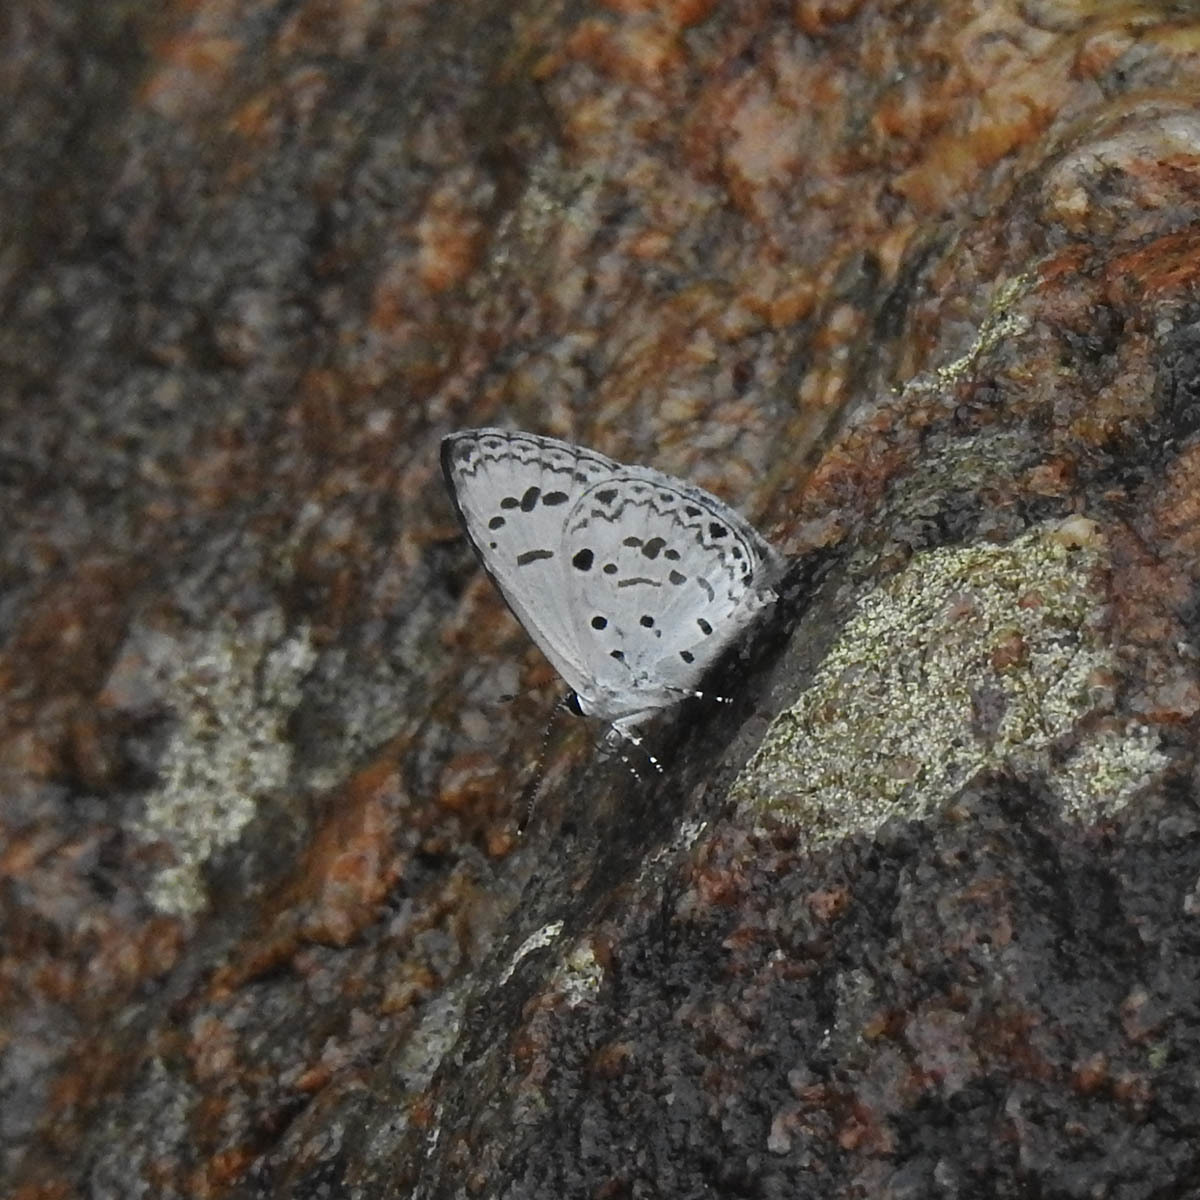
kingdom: Animalia
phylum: Arthropoda
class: Insecta
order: Lepidoptera
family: Lycaenidae
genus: Acytolepis
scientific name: Acytolepis puspa
